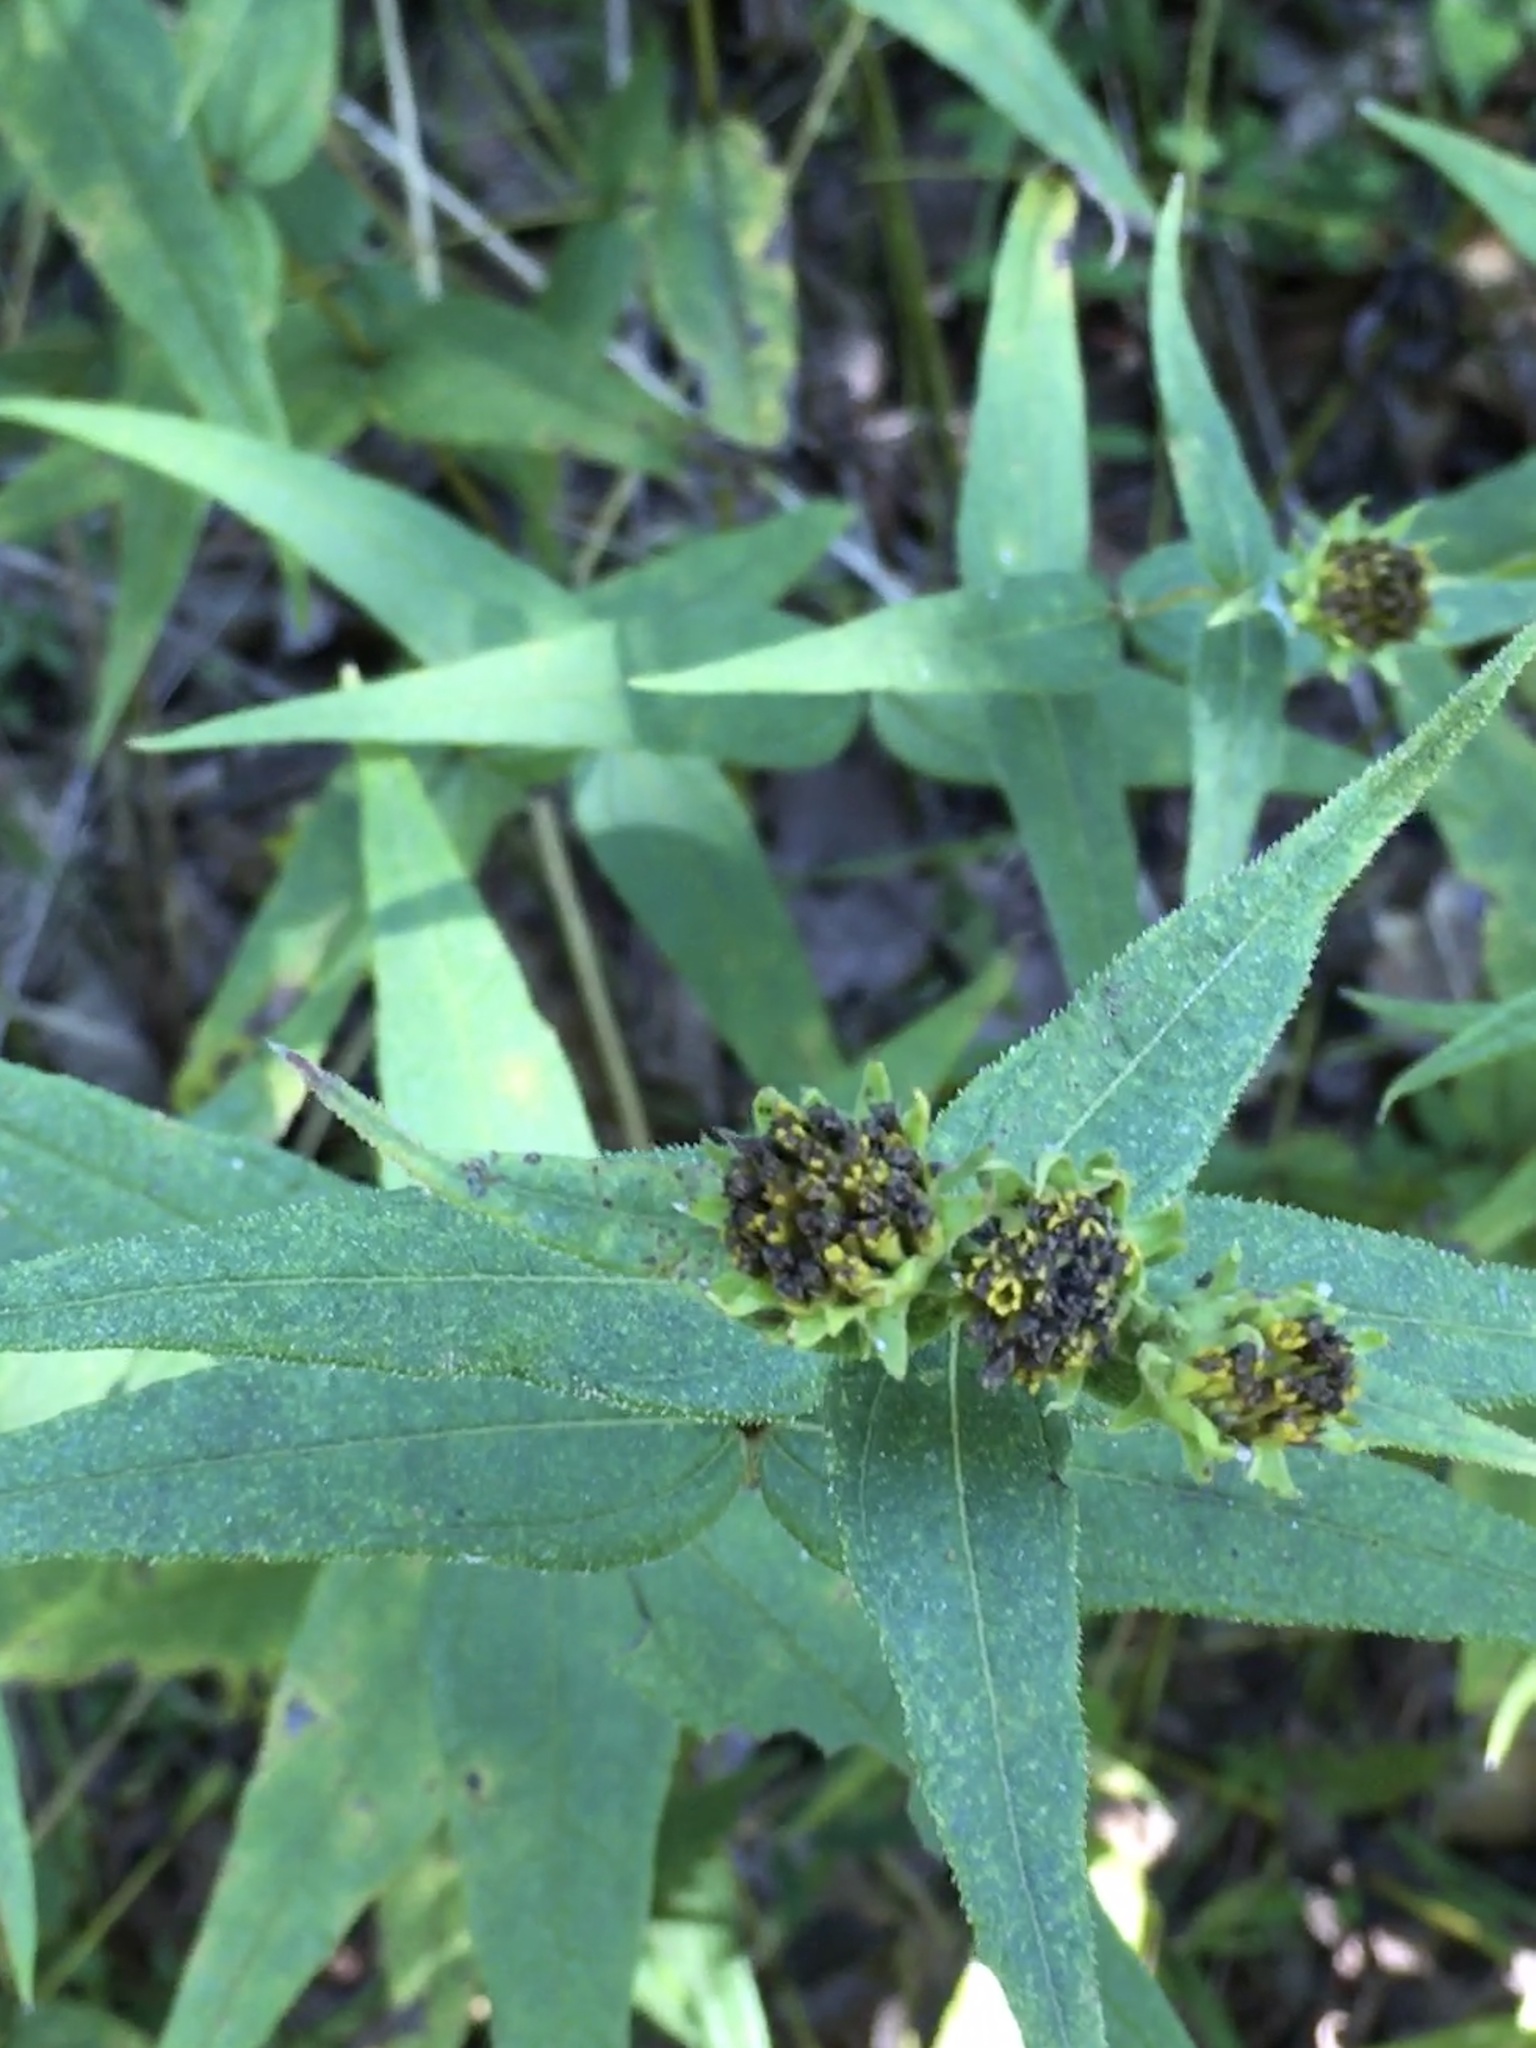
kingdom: Plantae
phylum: Tracheophyta
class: Magnoliopsida
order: Asterales
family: Asteraceae
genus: Helianthus
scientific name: Helianthus divaricatus
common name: Divergent sunflower
